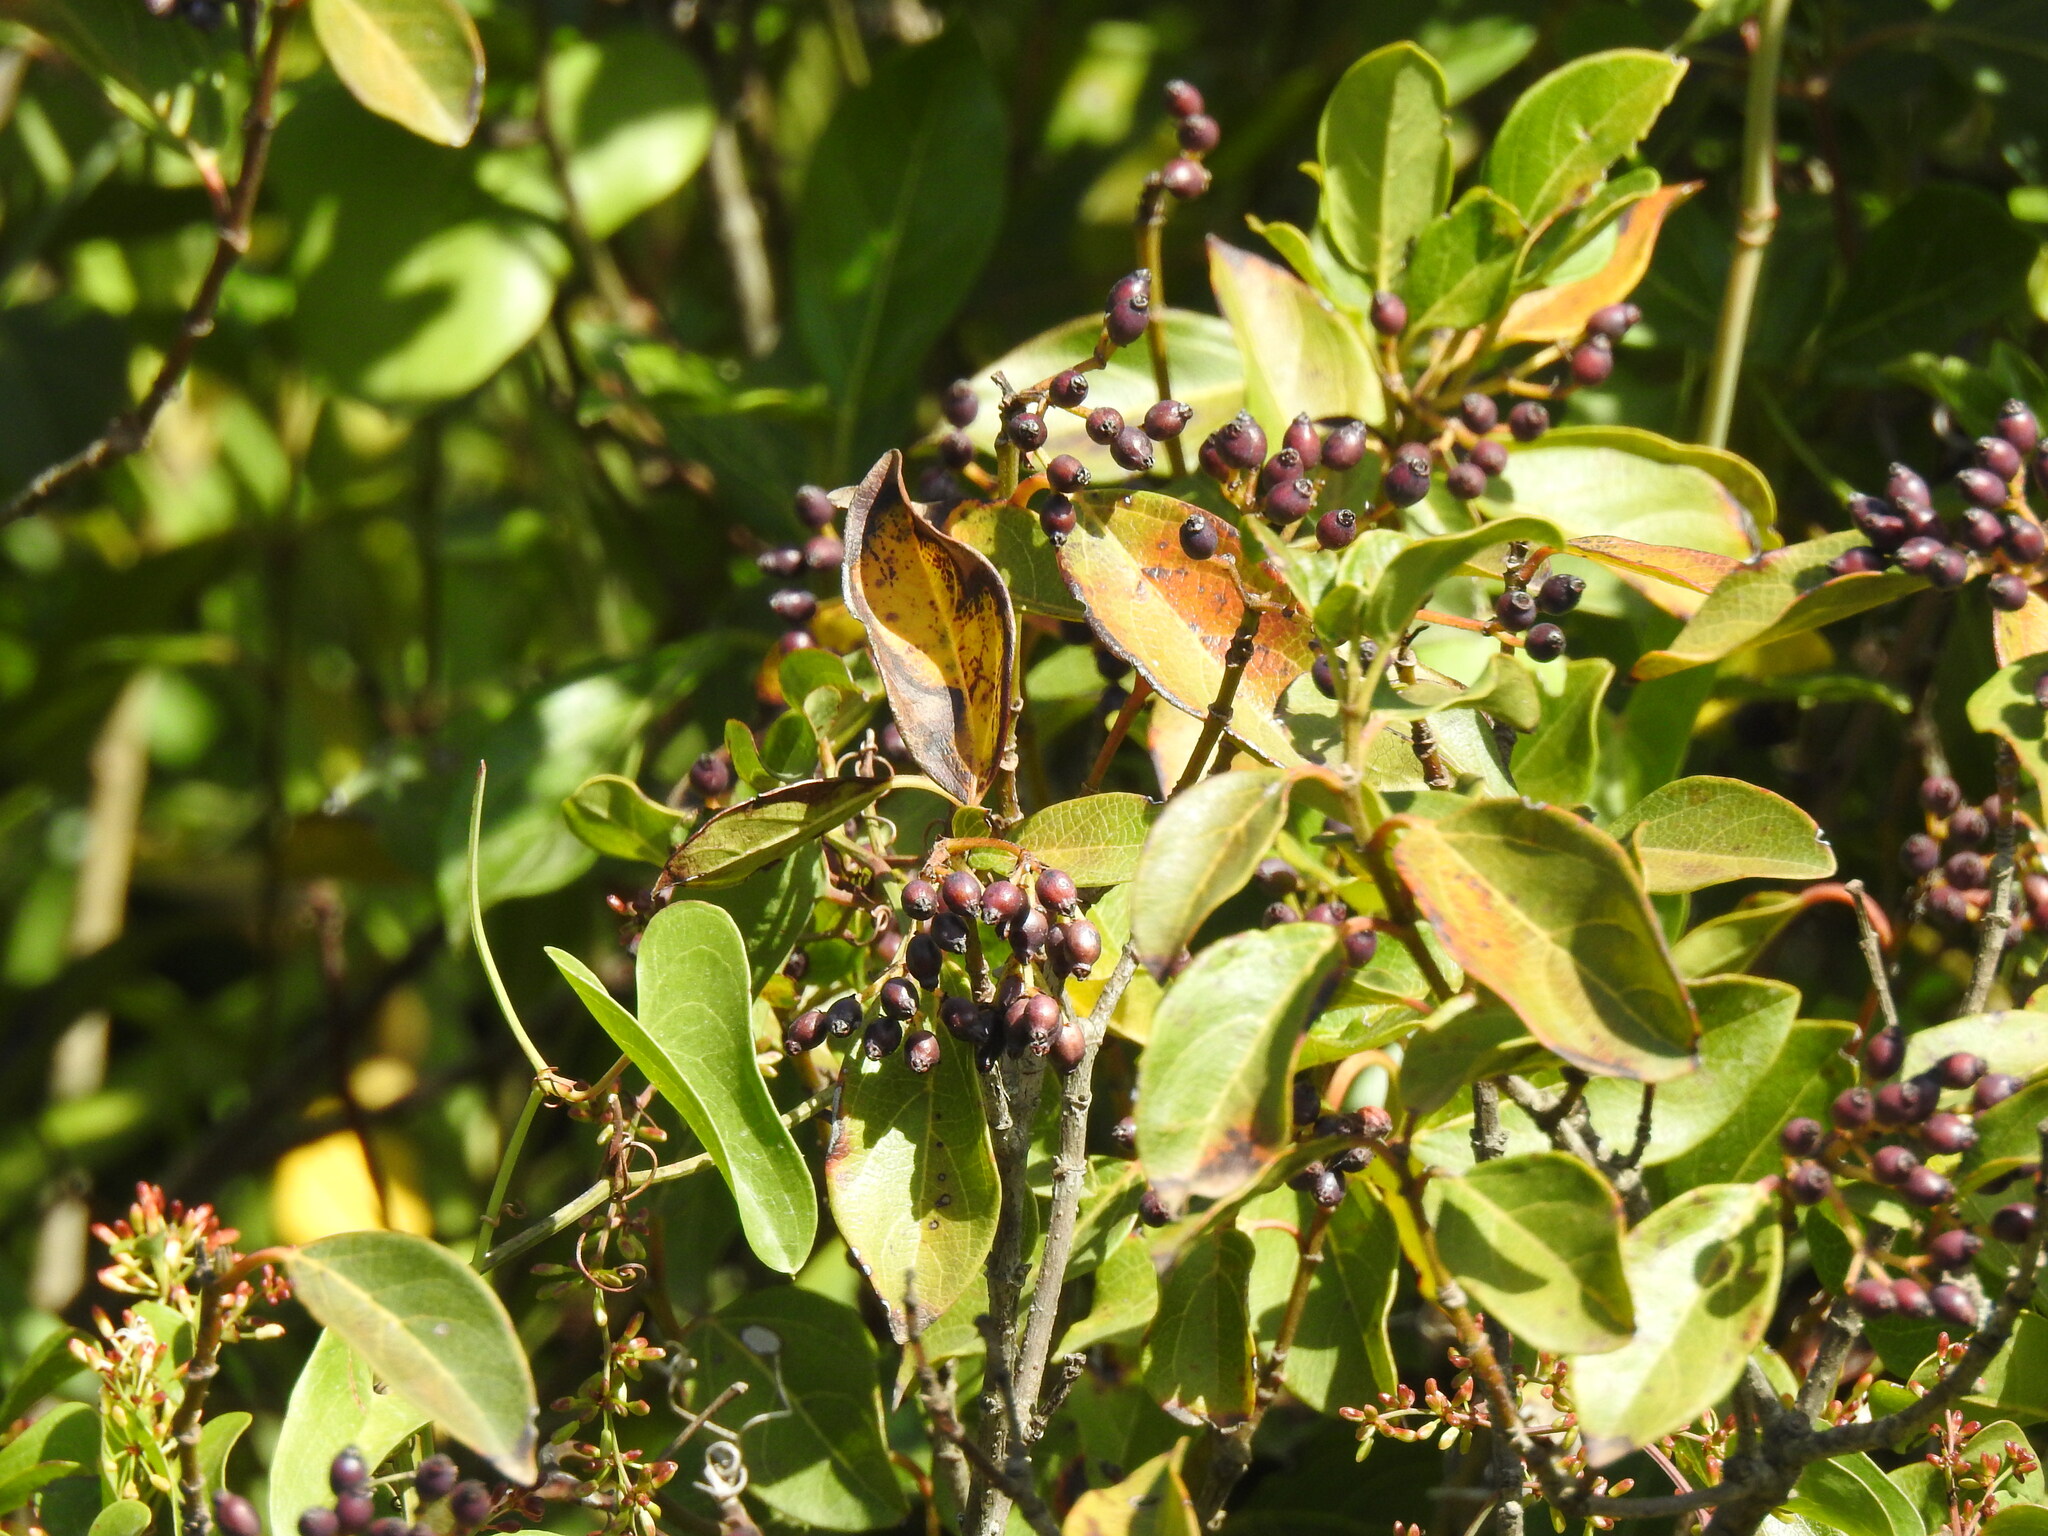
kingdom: Plantae
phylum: Tracheophyta
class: Magnoliopsida
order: Dipsacales
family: Viburnaceae
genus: Viburnum
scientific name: Viburnum tinus
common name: Laurustinus
